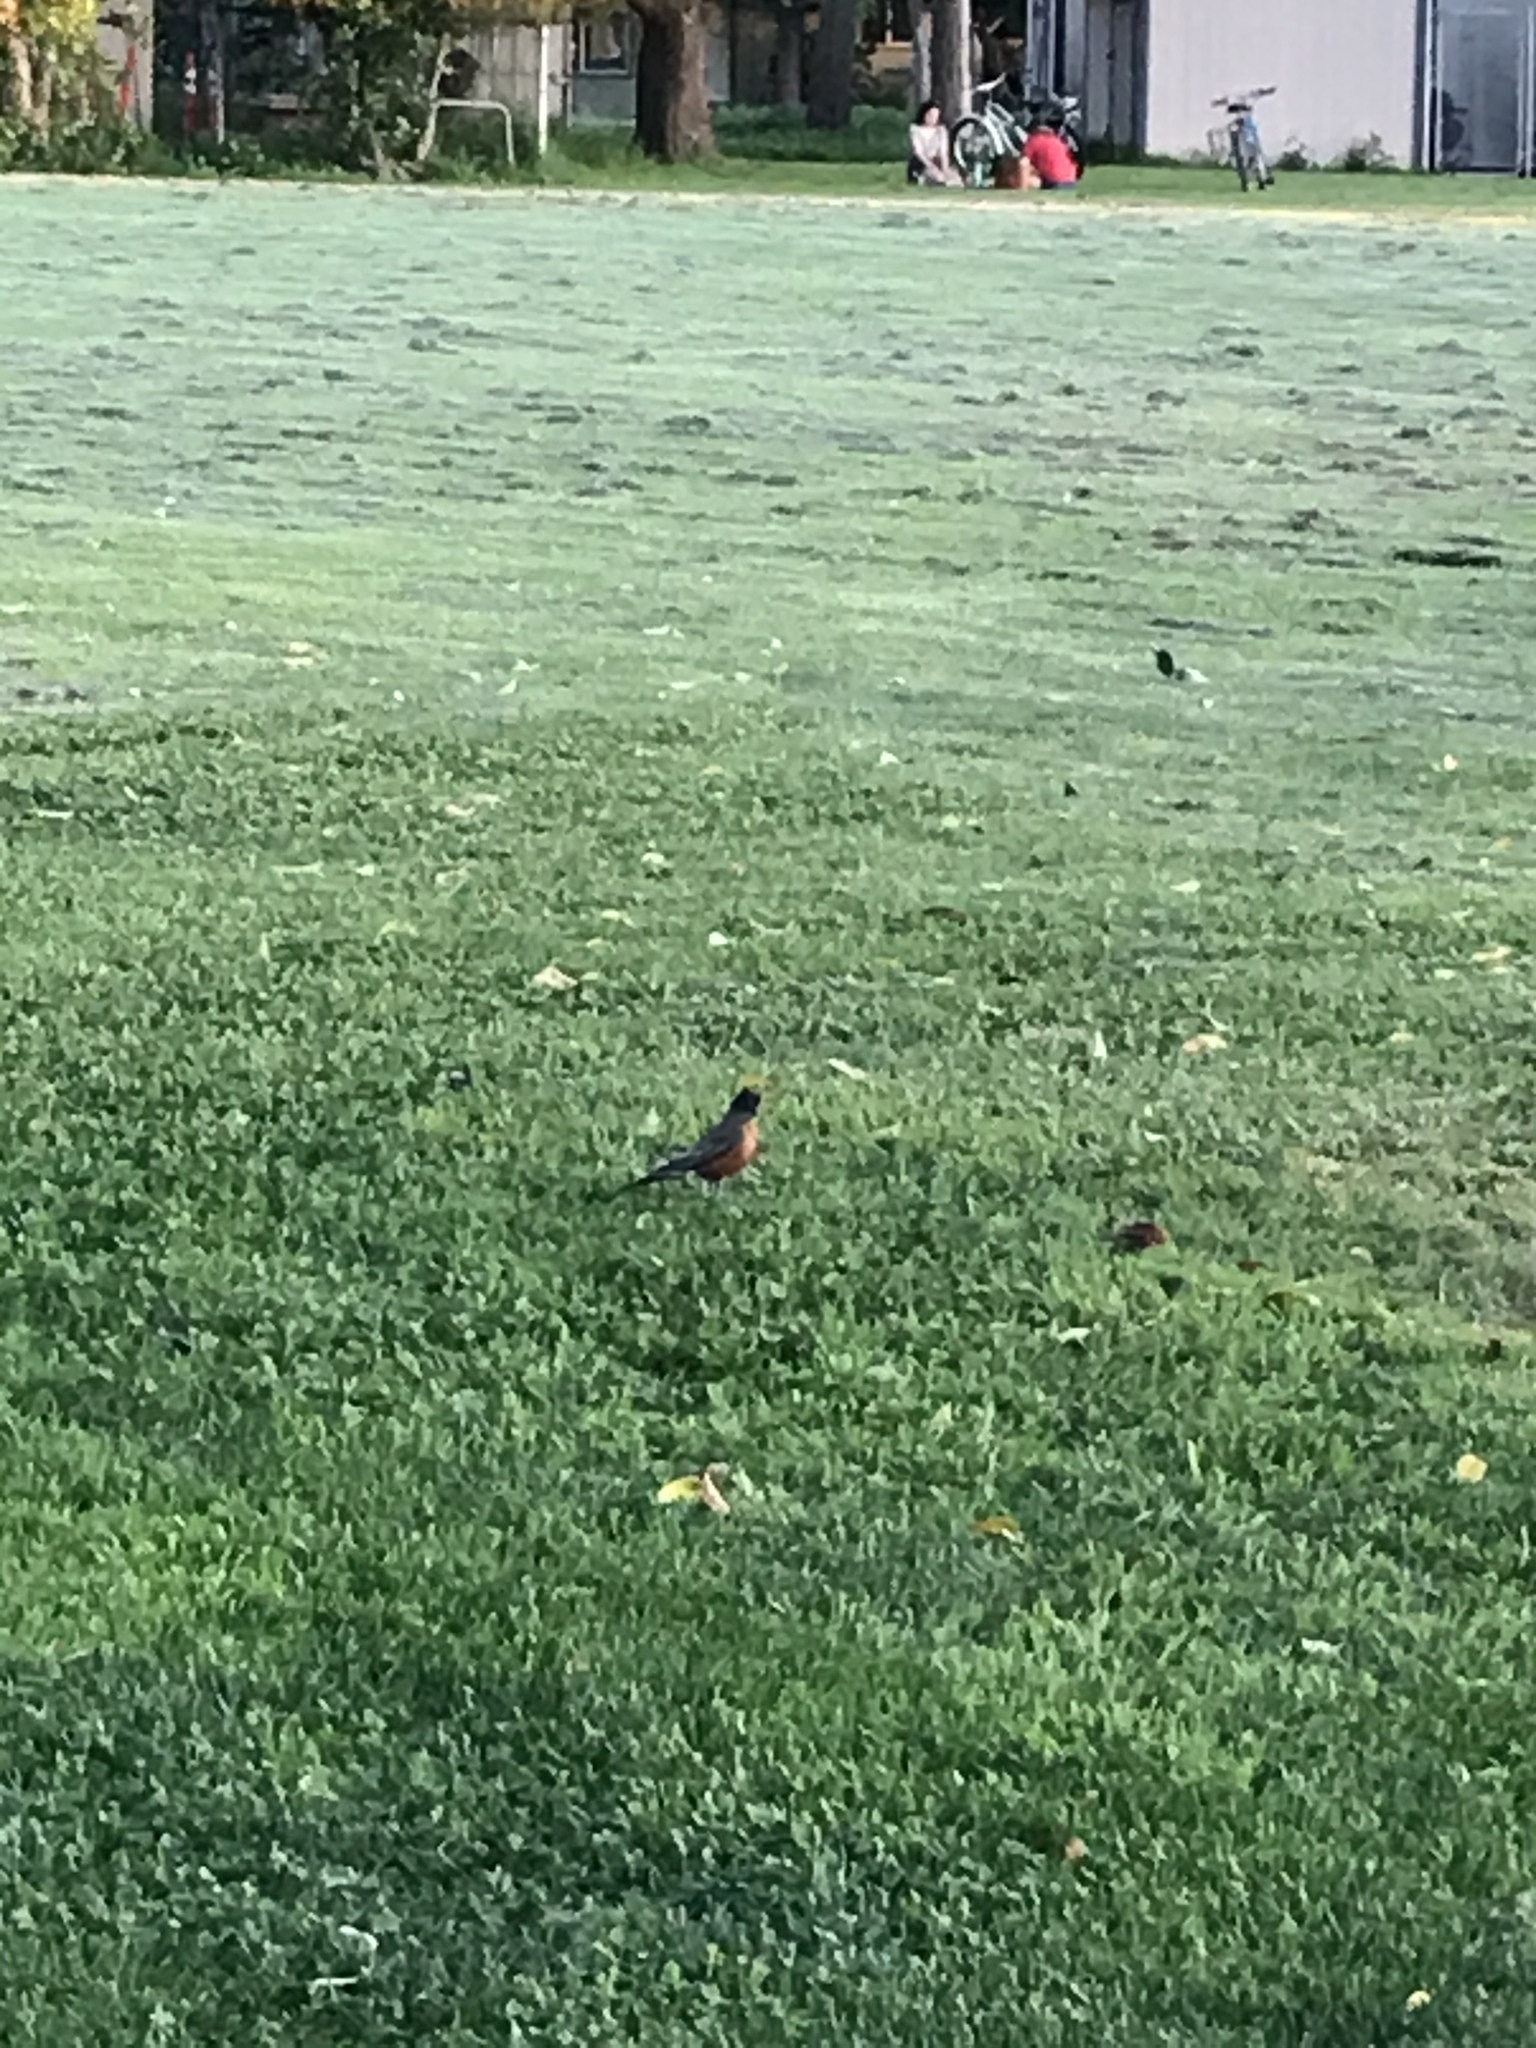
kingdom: Animalia
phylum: Chordata
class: Aves
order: Passeriformes
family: Turdidae
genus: Turdus
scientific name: Turdus migratorius
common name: American robin
